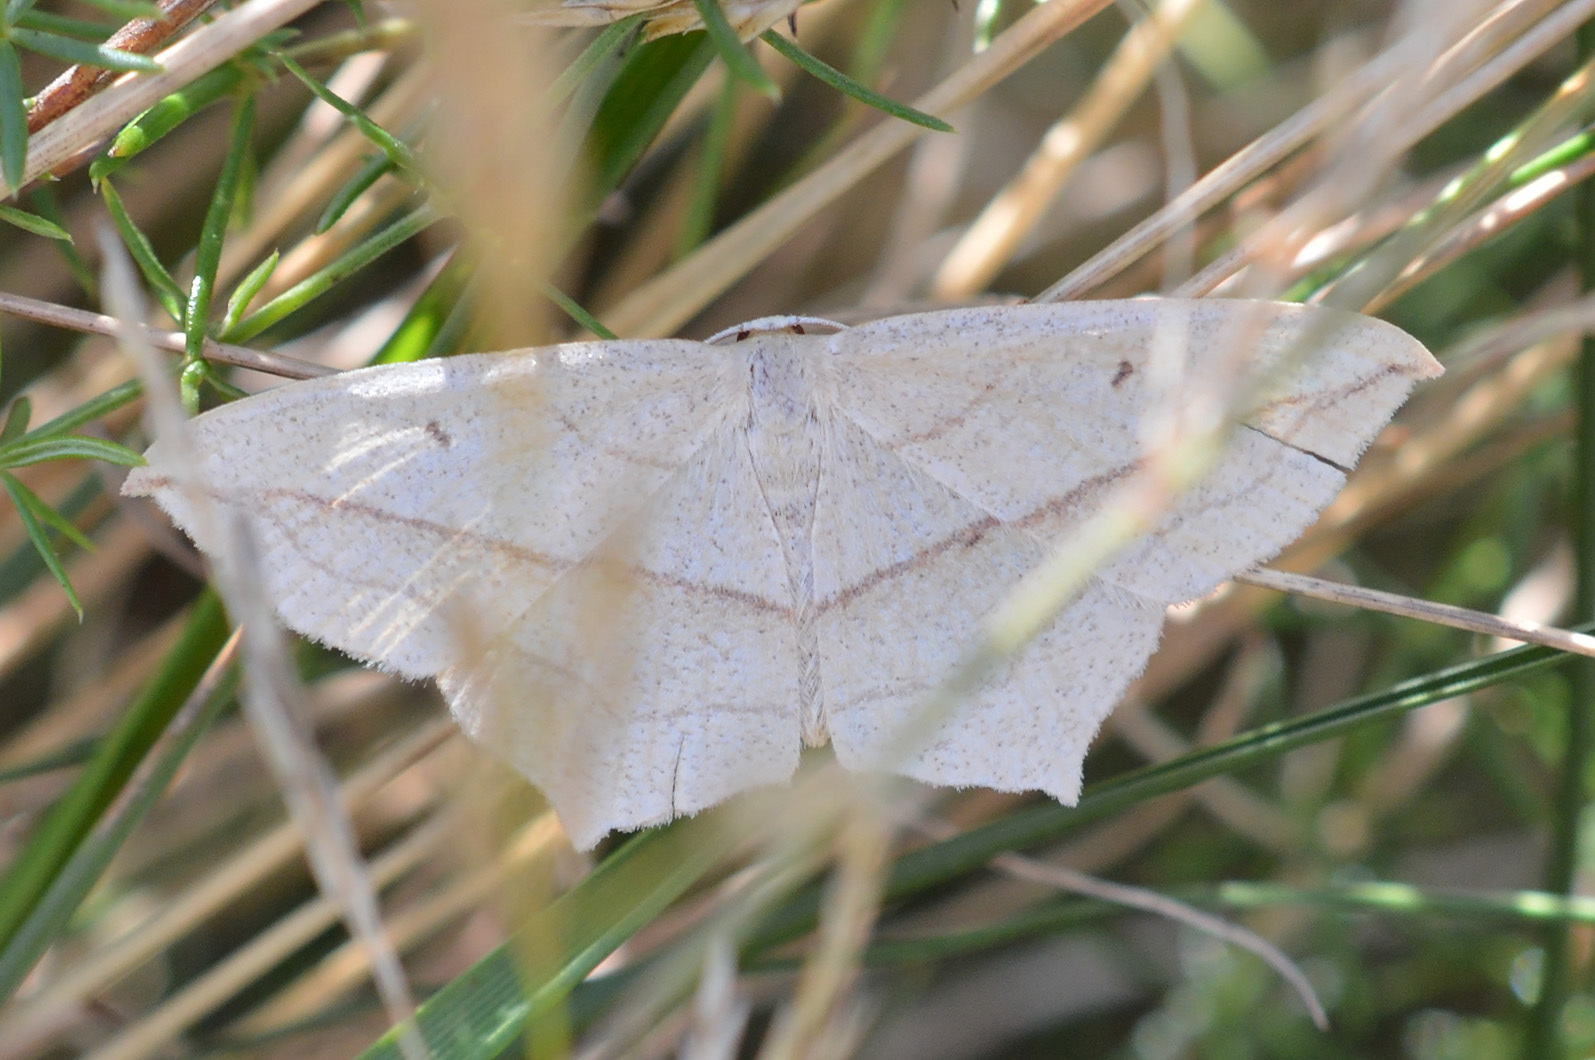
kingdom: Animalia
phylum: Arthropoda
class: Insecta
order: Lepidoptera
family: Geometridae
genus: Timandra
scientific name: Timandra comae
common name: Blood-vein
